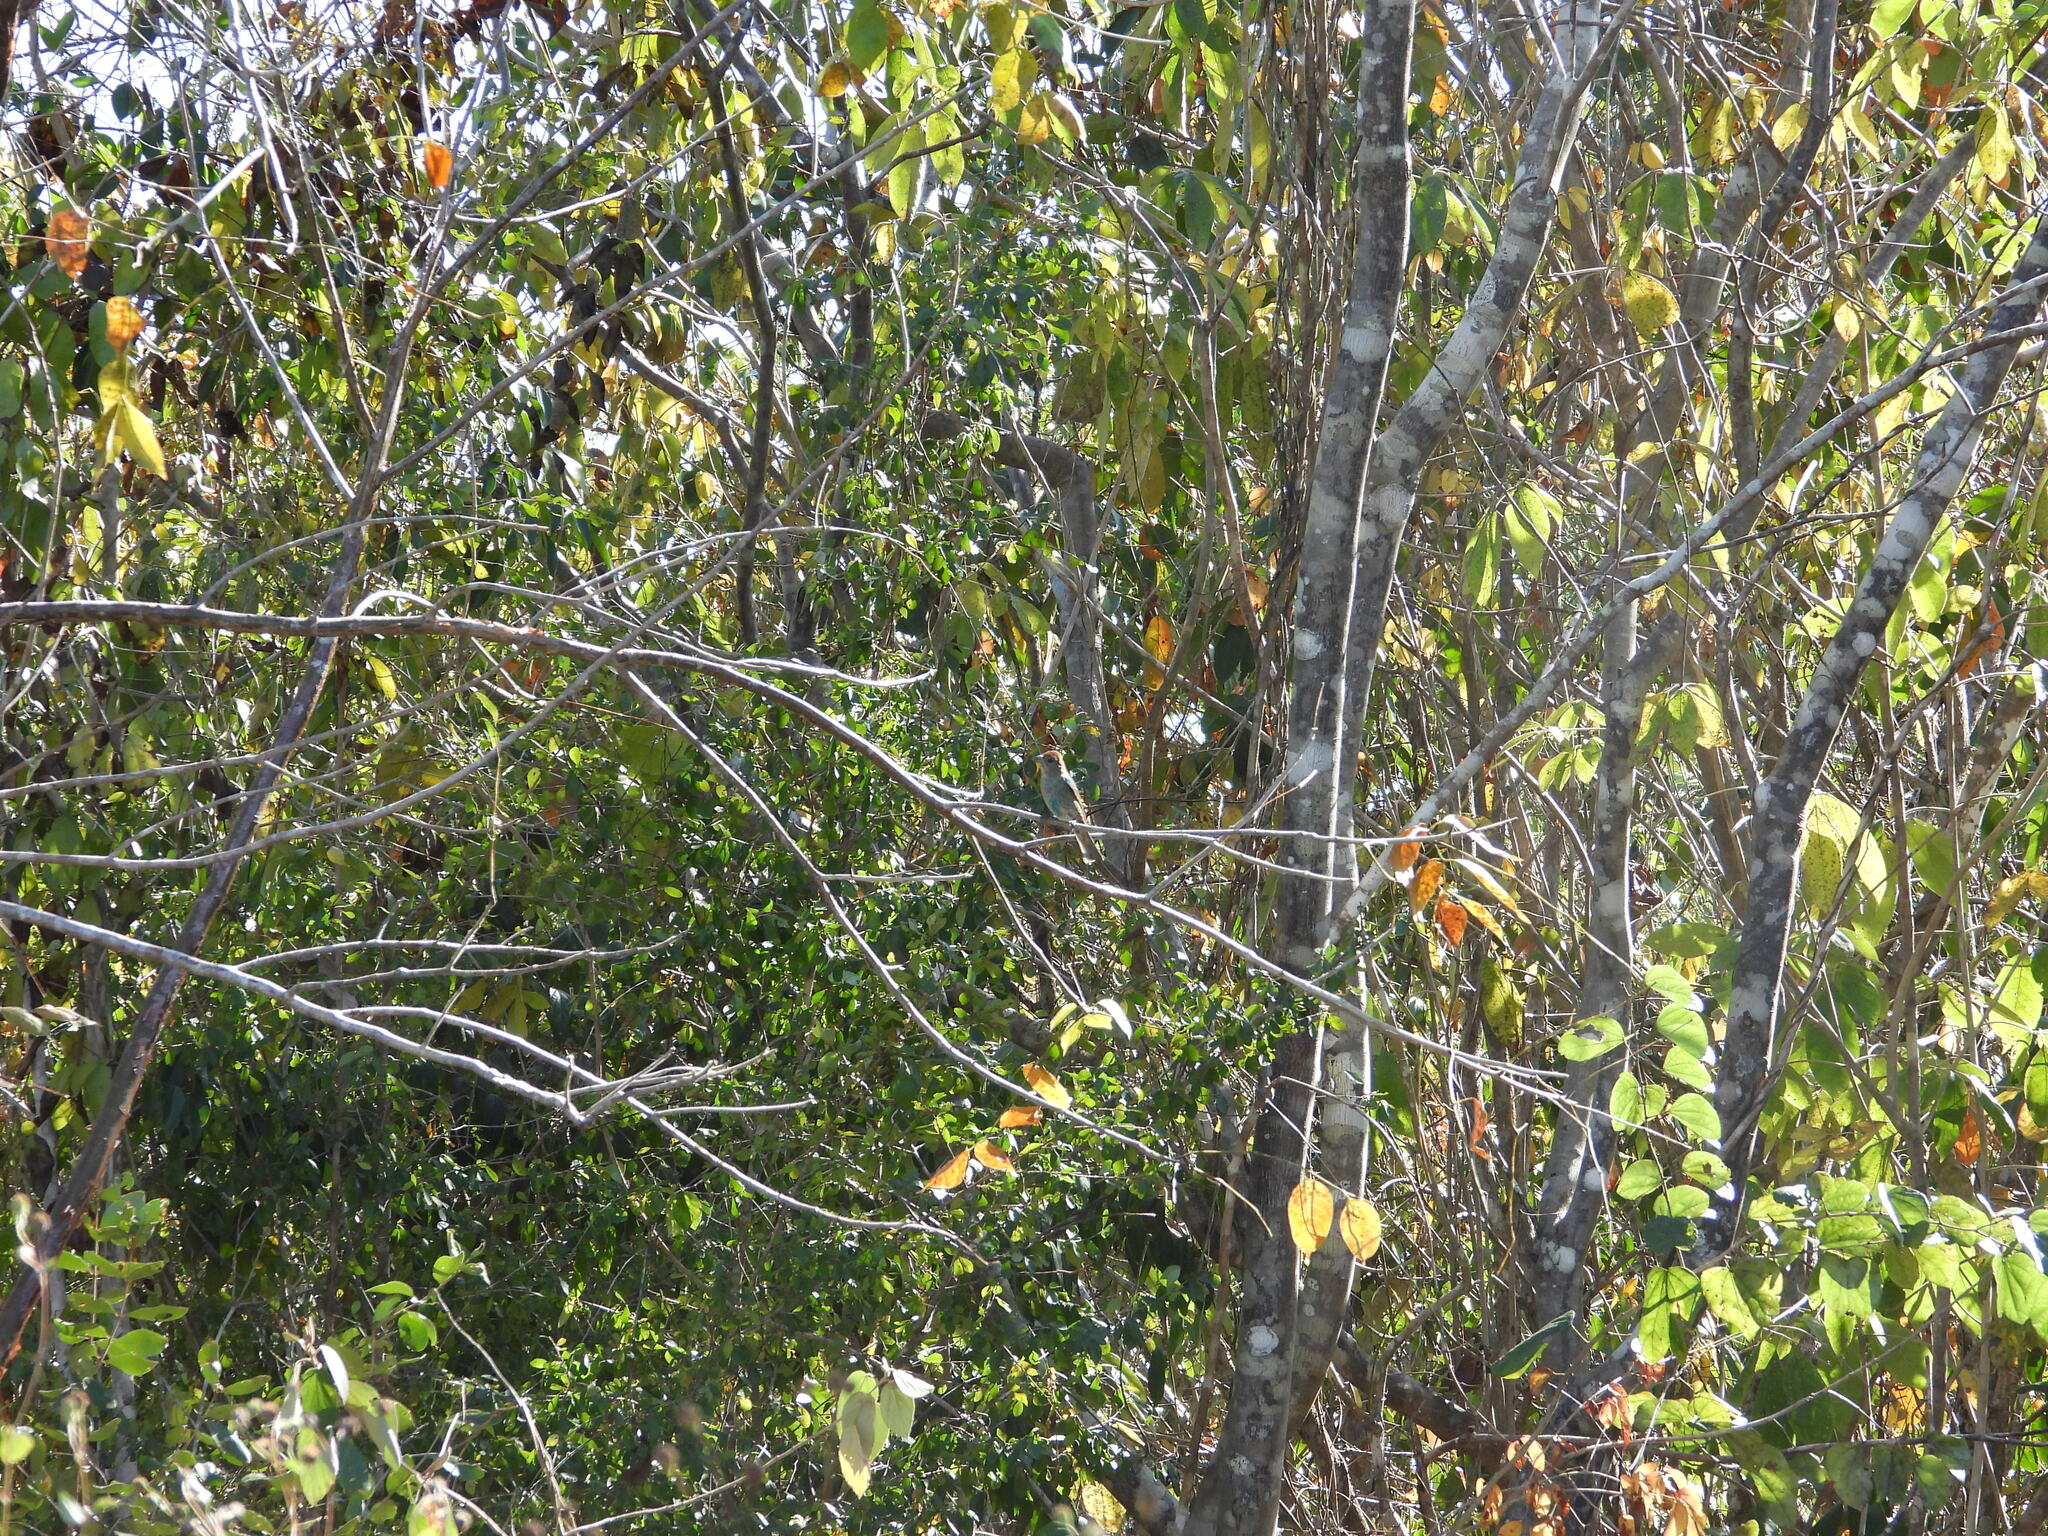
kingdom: Animalia
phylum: Chordata
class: Aves
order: Passeriformes
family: Cardinalidae
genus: Passerina
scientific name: Passerina cyanea
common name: Indigo bunting
